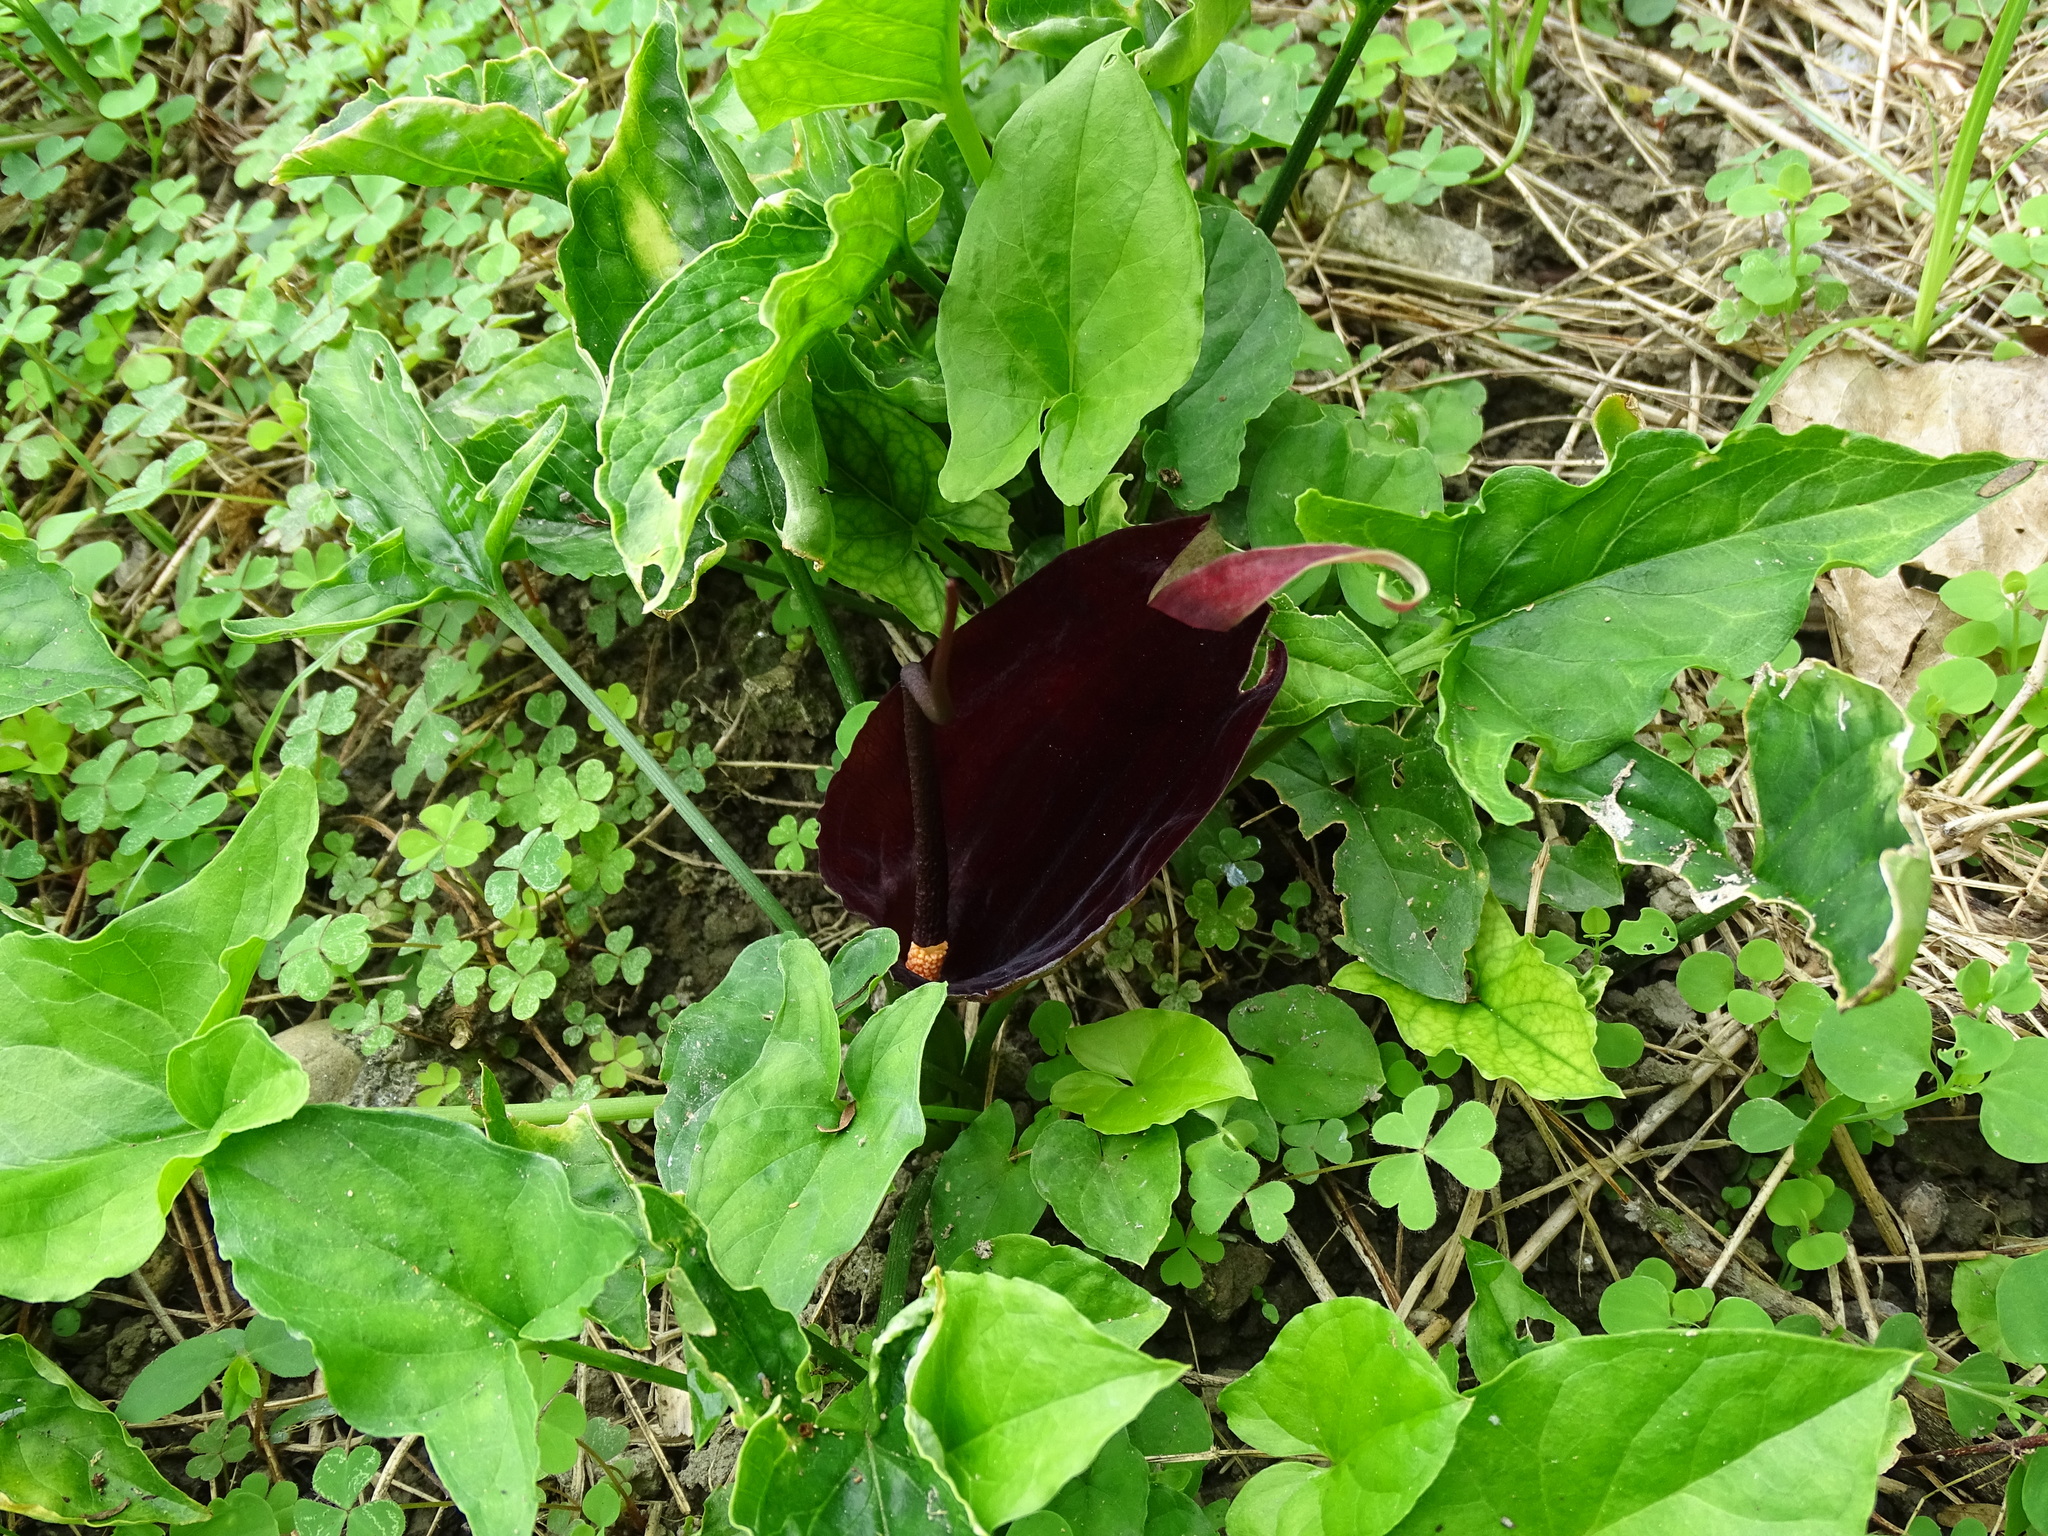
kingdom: Plantae
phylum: Tracheophyta
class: Liliopsida
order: Alismatales
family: Araceae
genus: Typhonium
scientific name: Typhonium blumei
